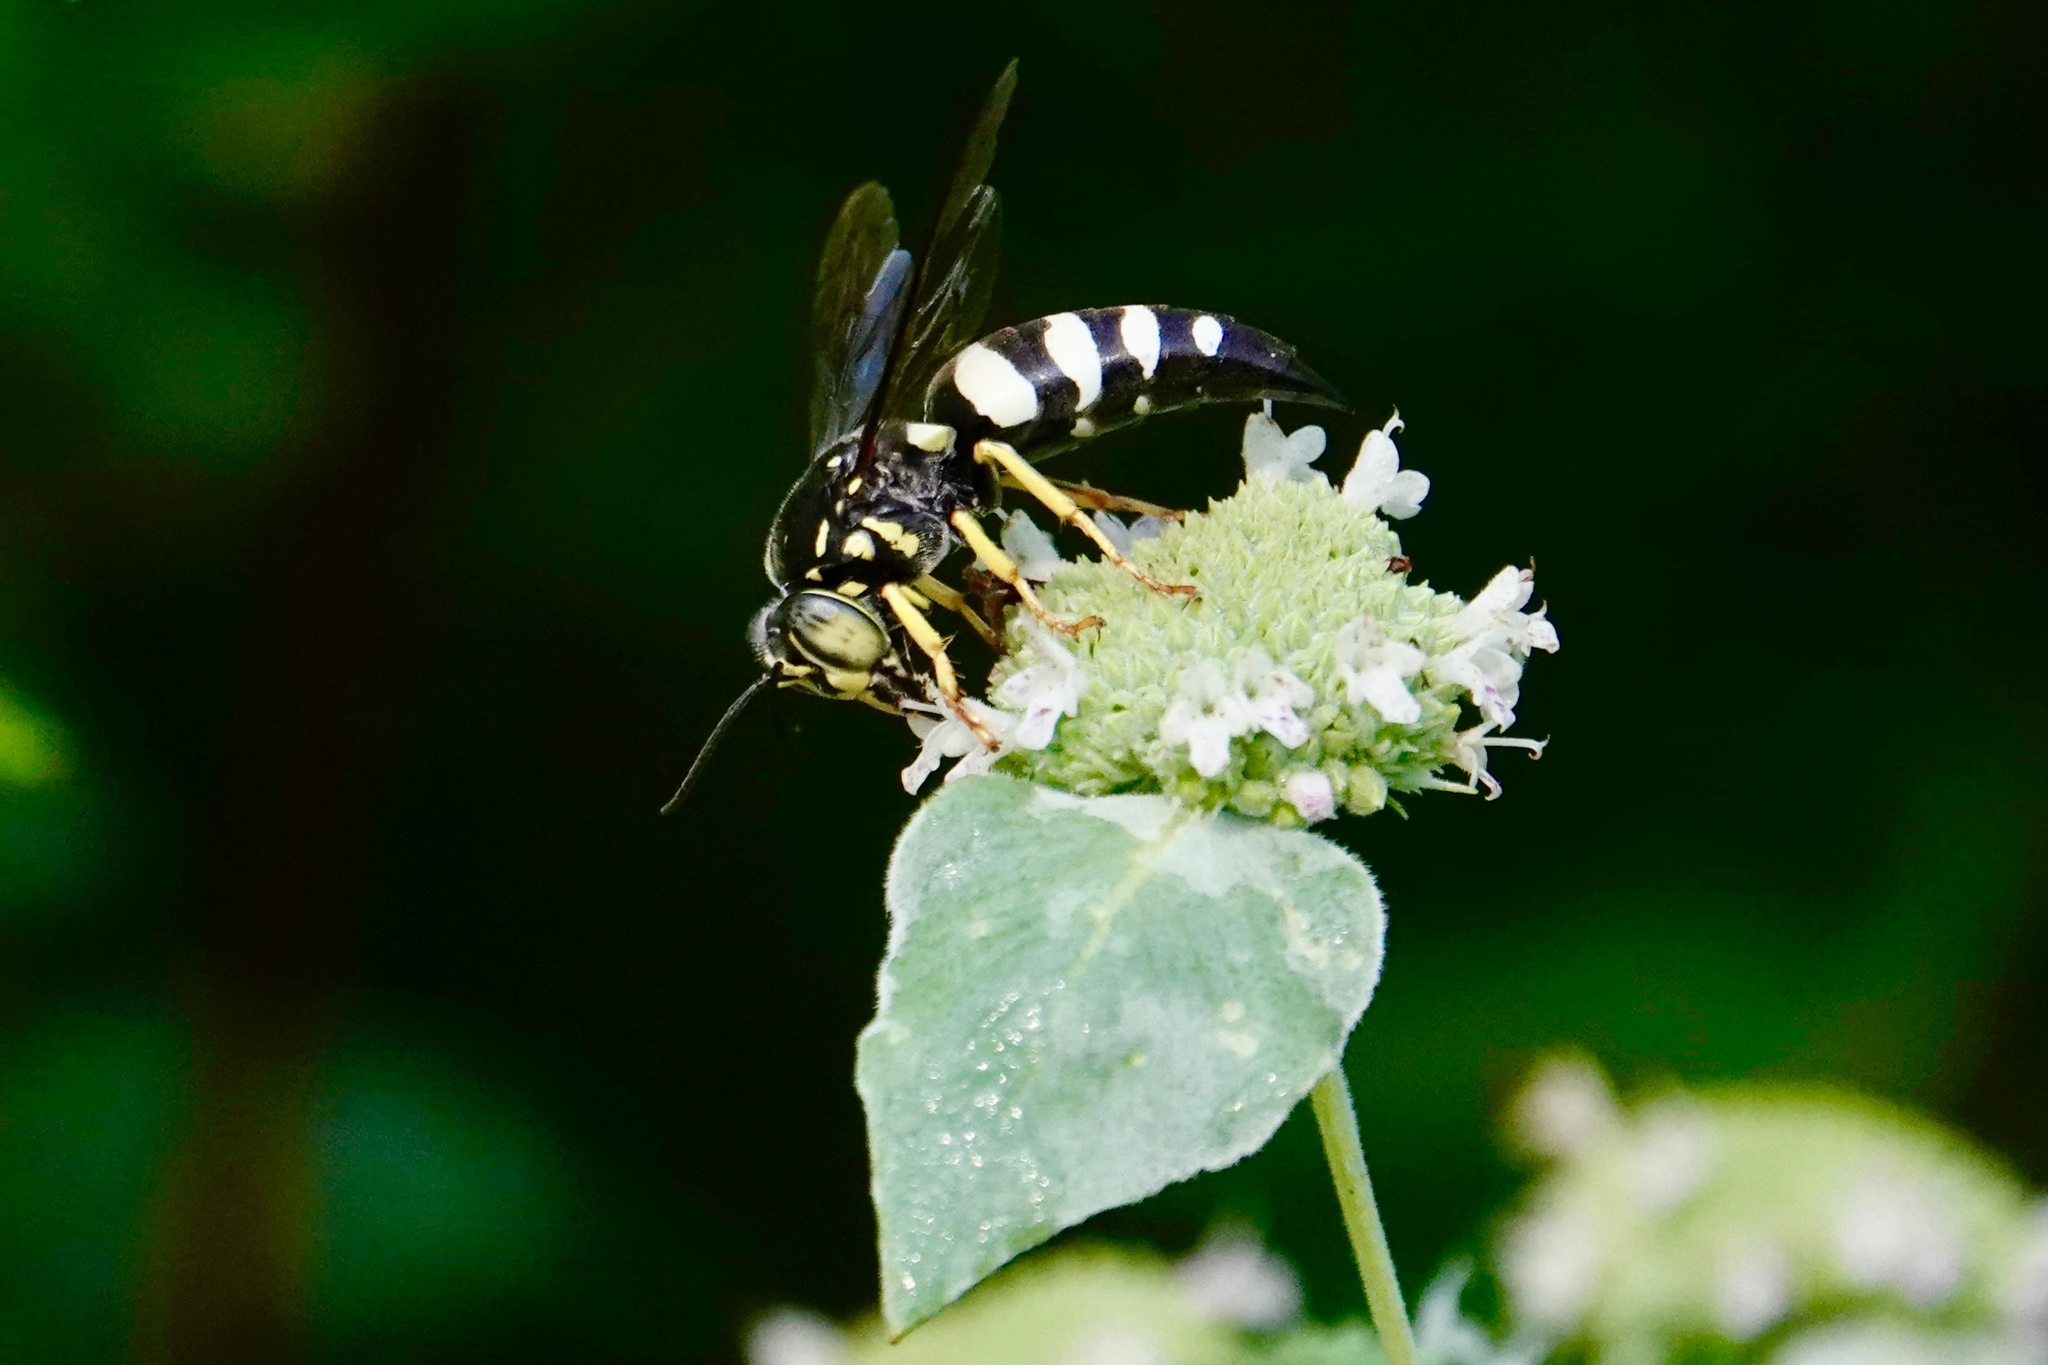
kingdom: Animalia
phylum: Arthropoda
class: Insecta
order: Hymenoptera
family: Crabronidae
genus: Bicyrtes
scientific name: Bicyrtes quadrifasciatus
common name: Four-banded stink bug hunter wasp
